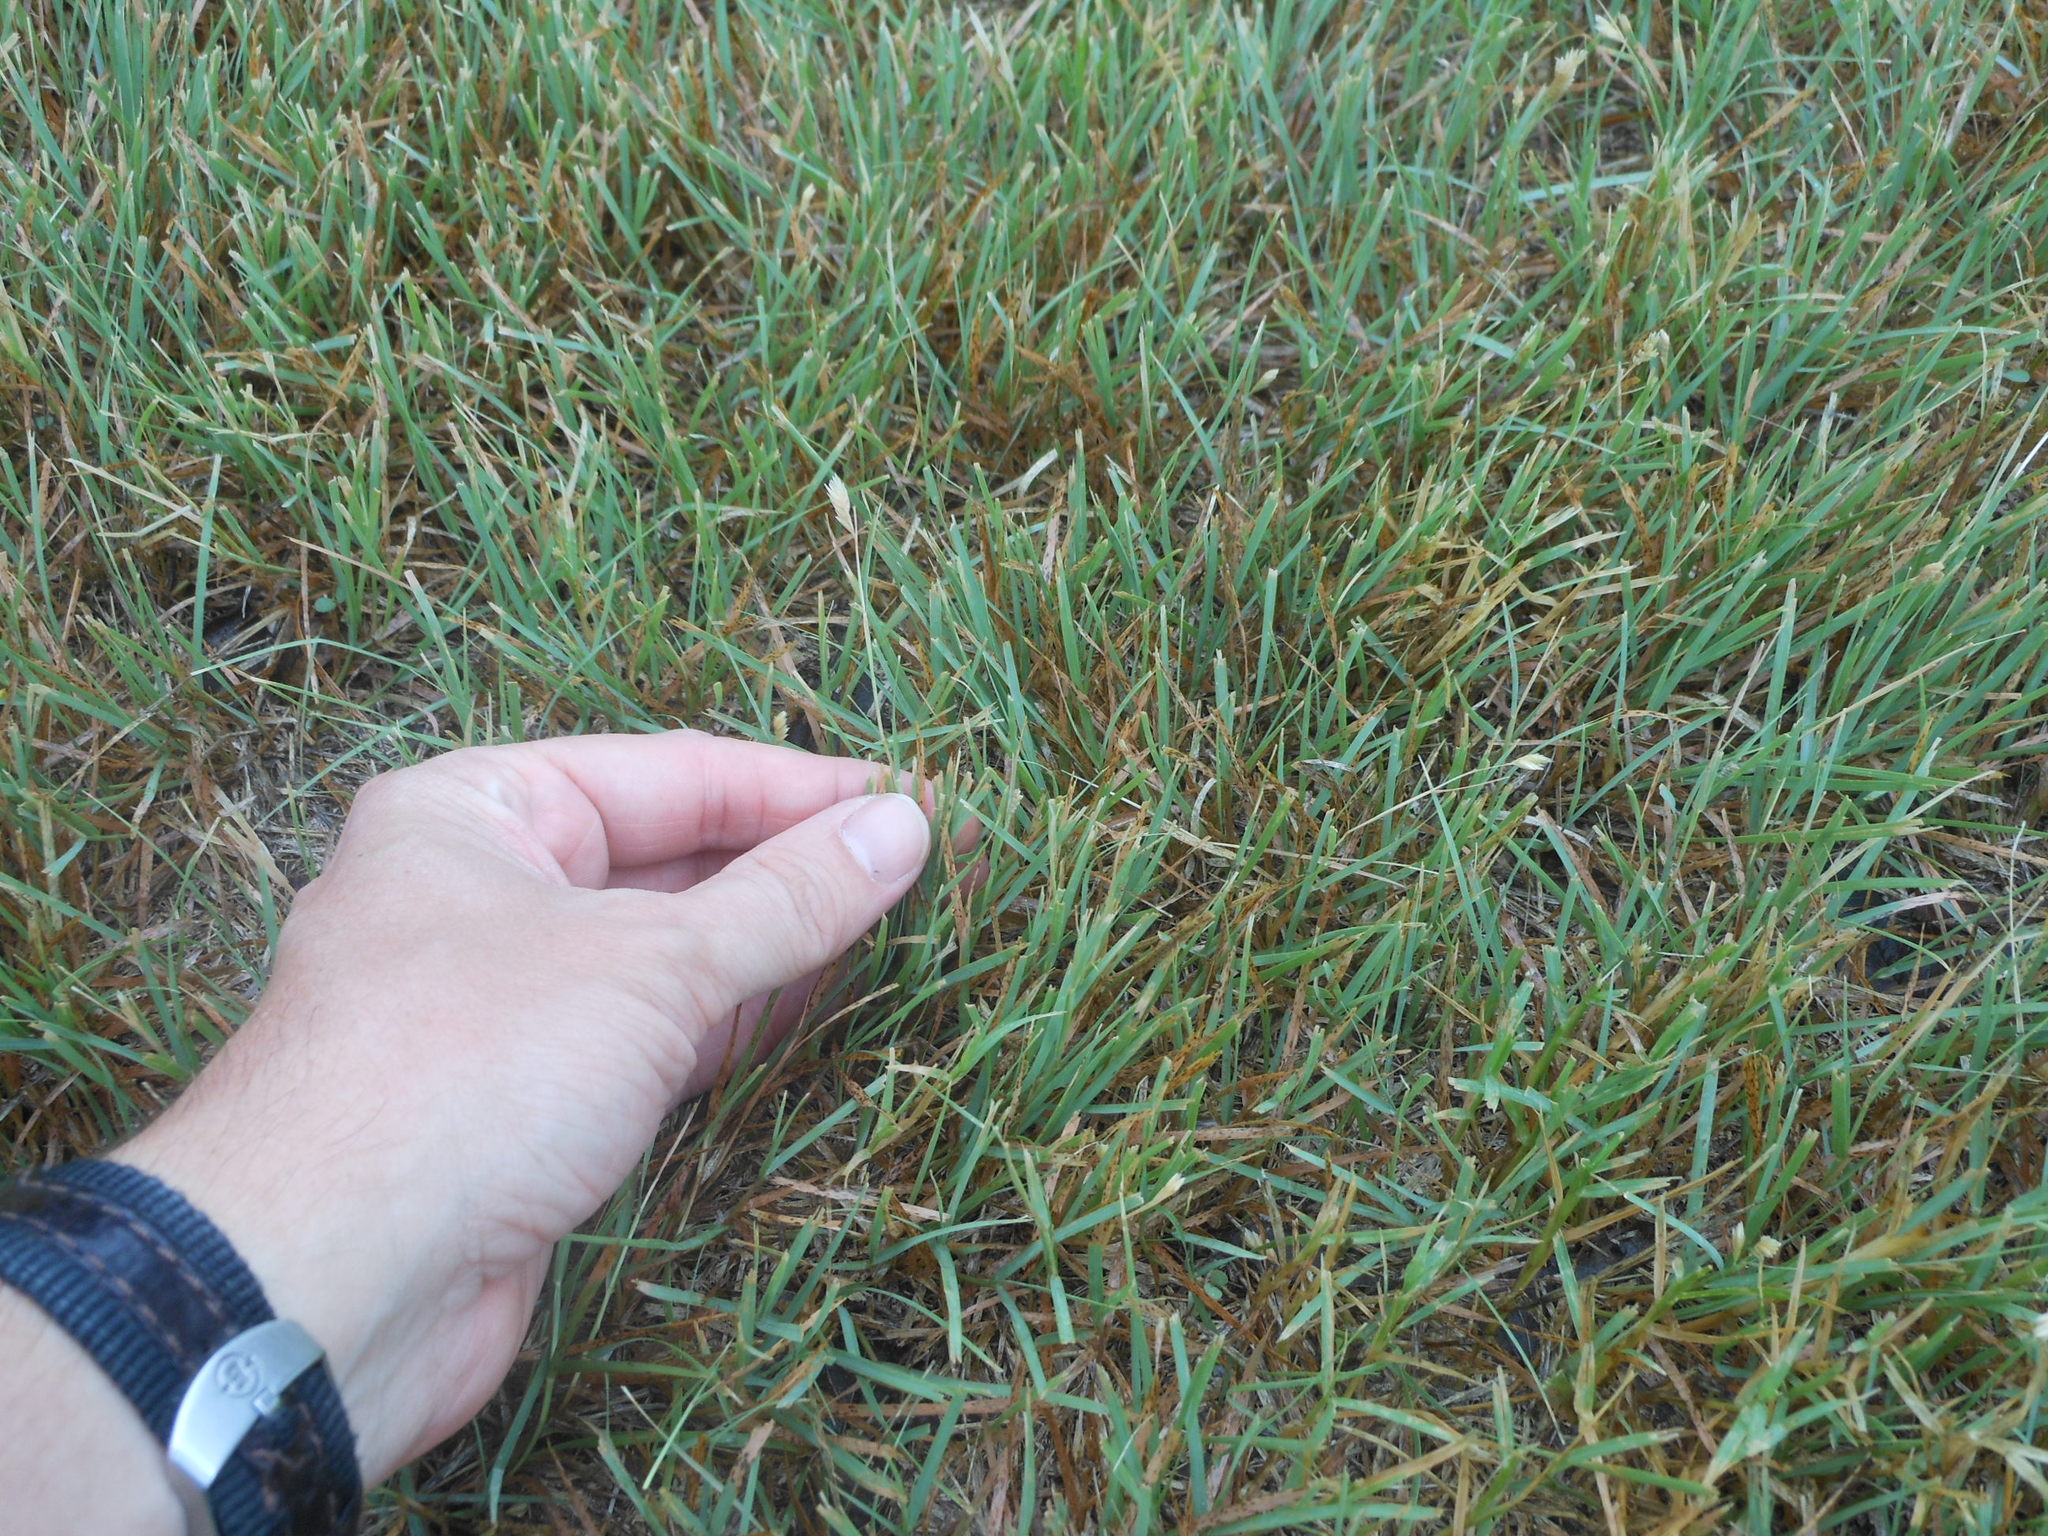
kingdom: Plantae
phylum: Tracheophyta
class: Liliopsida
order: Poales
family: Poaceae
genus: Bouteloua
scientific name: Bouteloua dactyloides
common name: Buffalo grass
